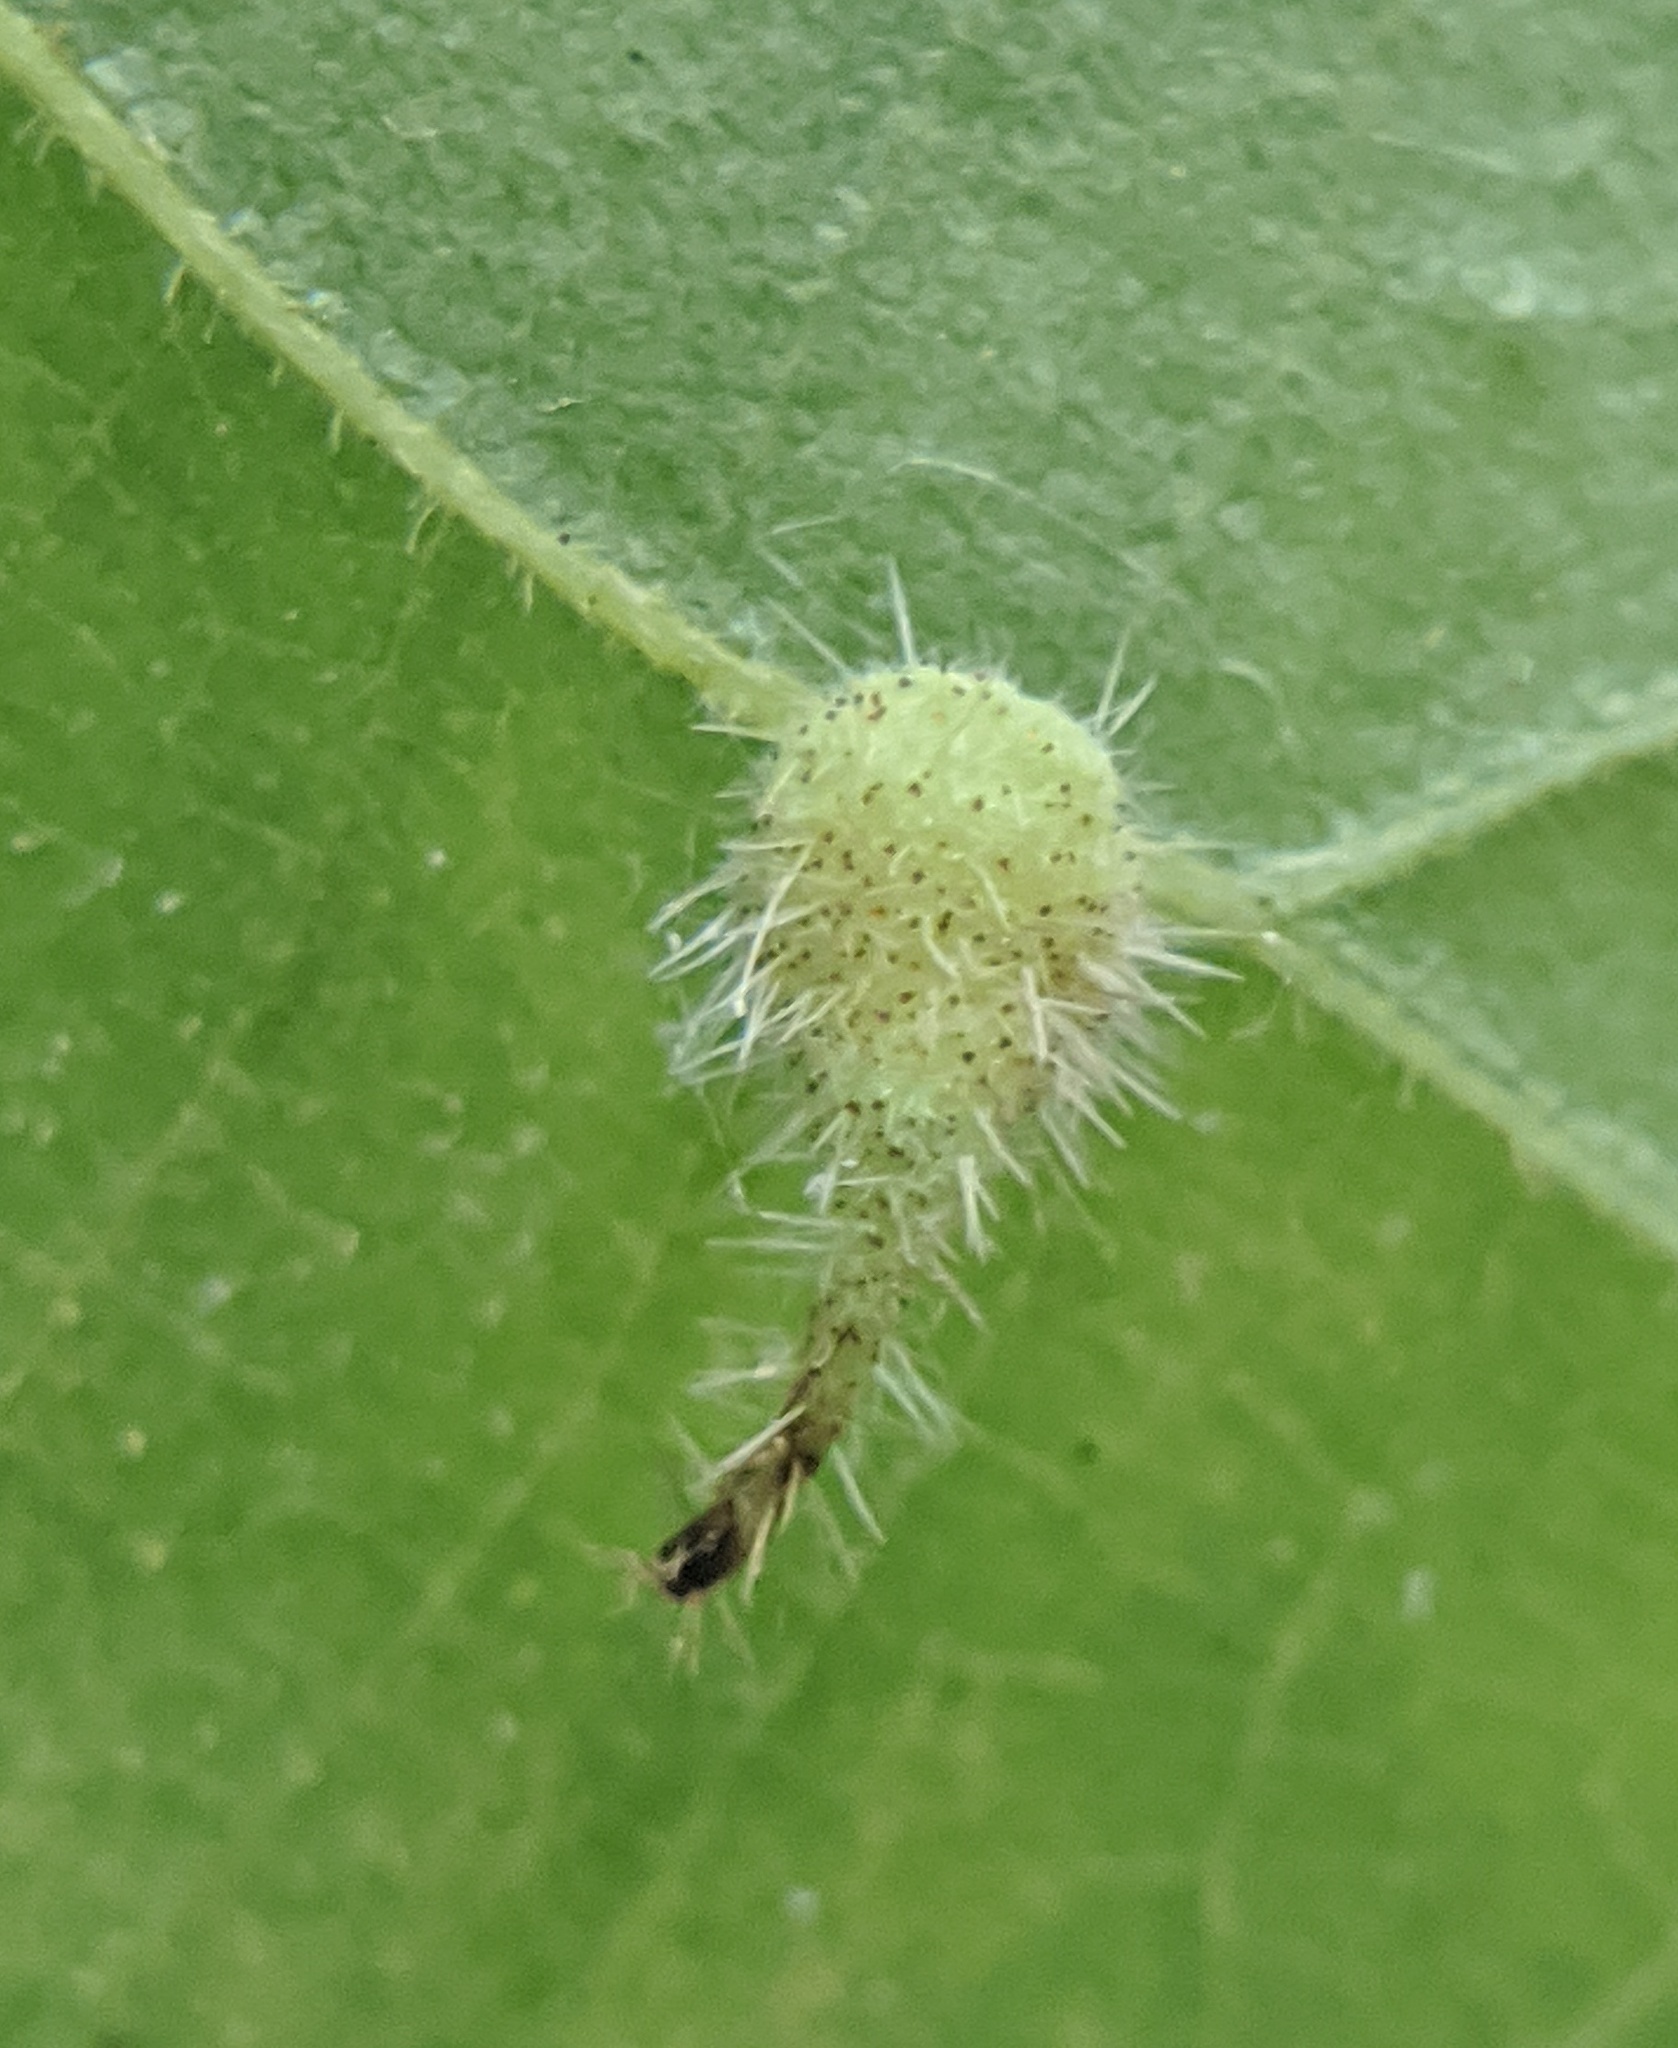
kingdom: Animalia
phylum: Arthropoda
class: Insecta
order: Diptera
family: Cecidomyiidae
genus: Caryomyia
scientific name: Caryomyia inclinata
